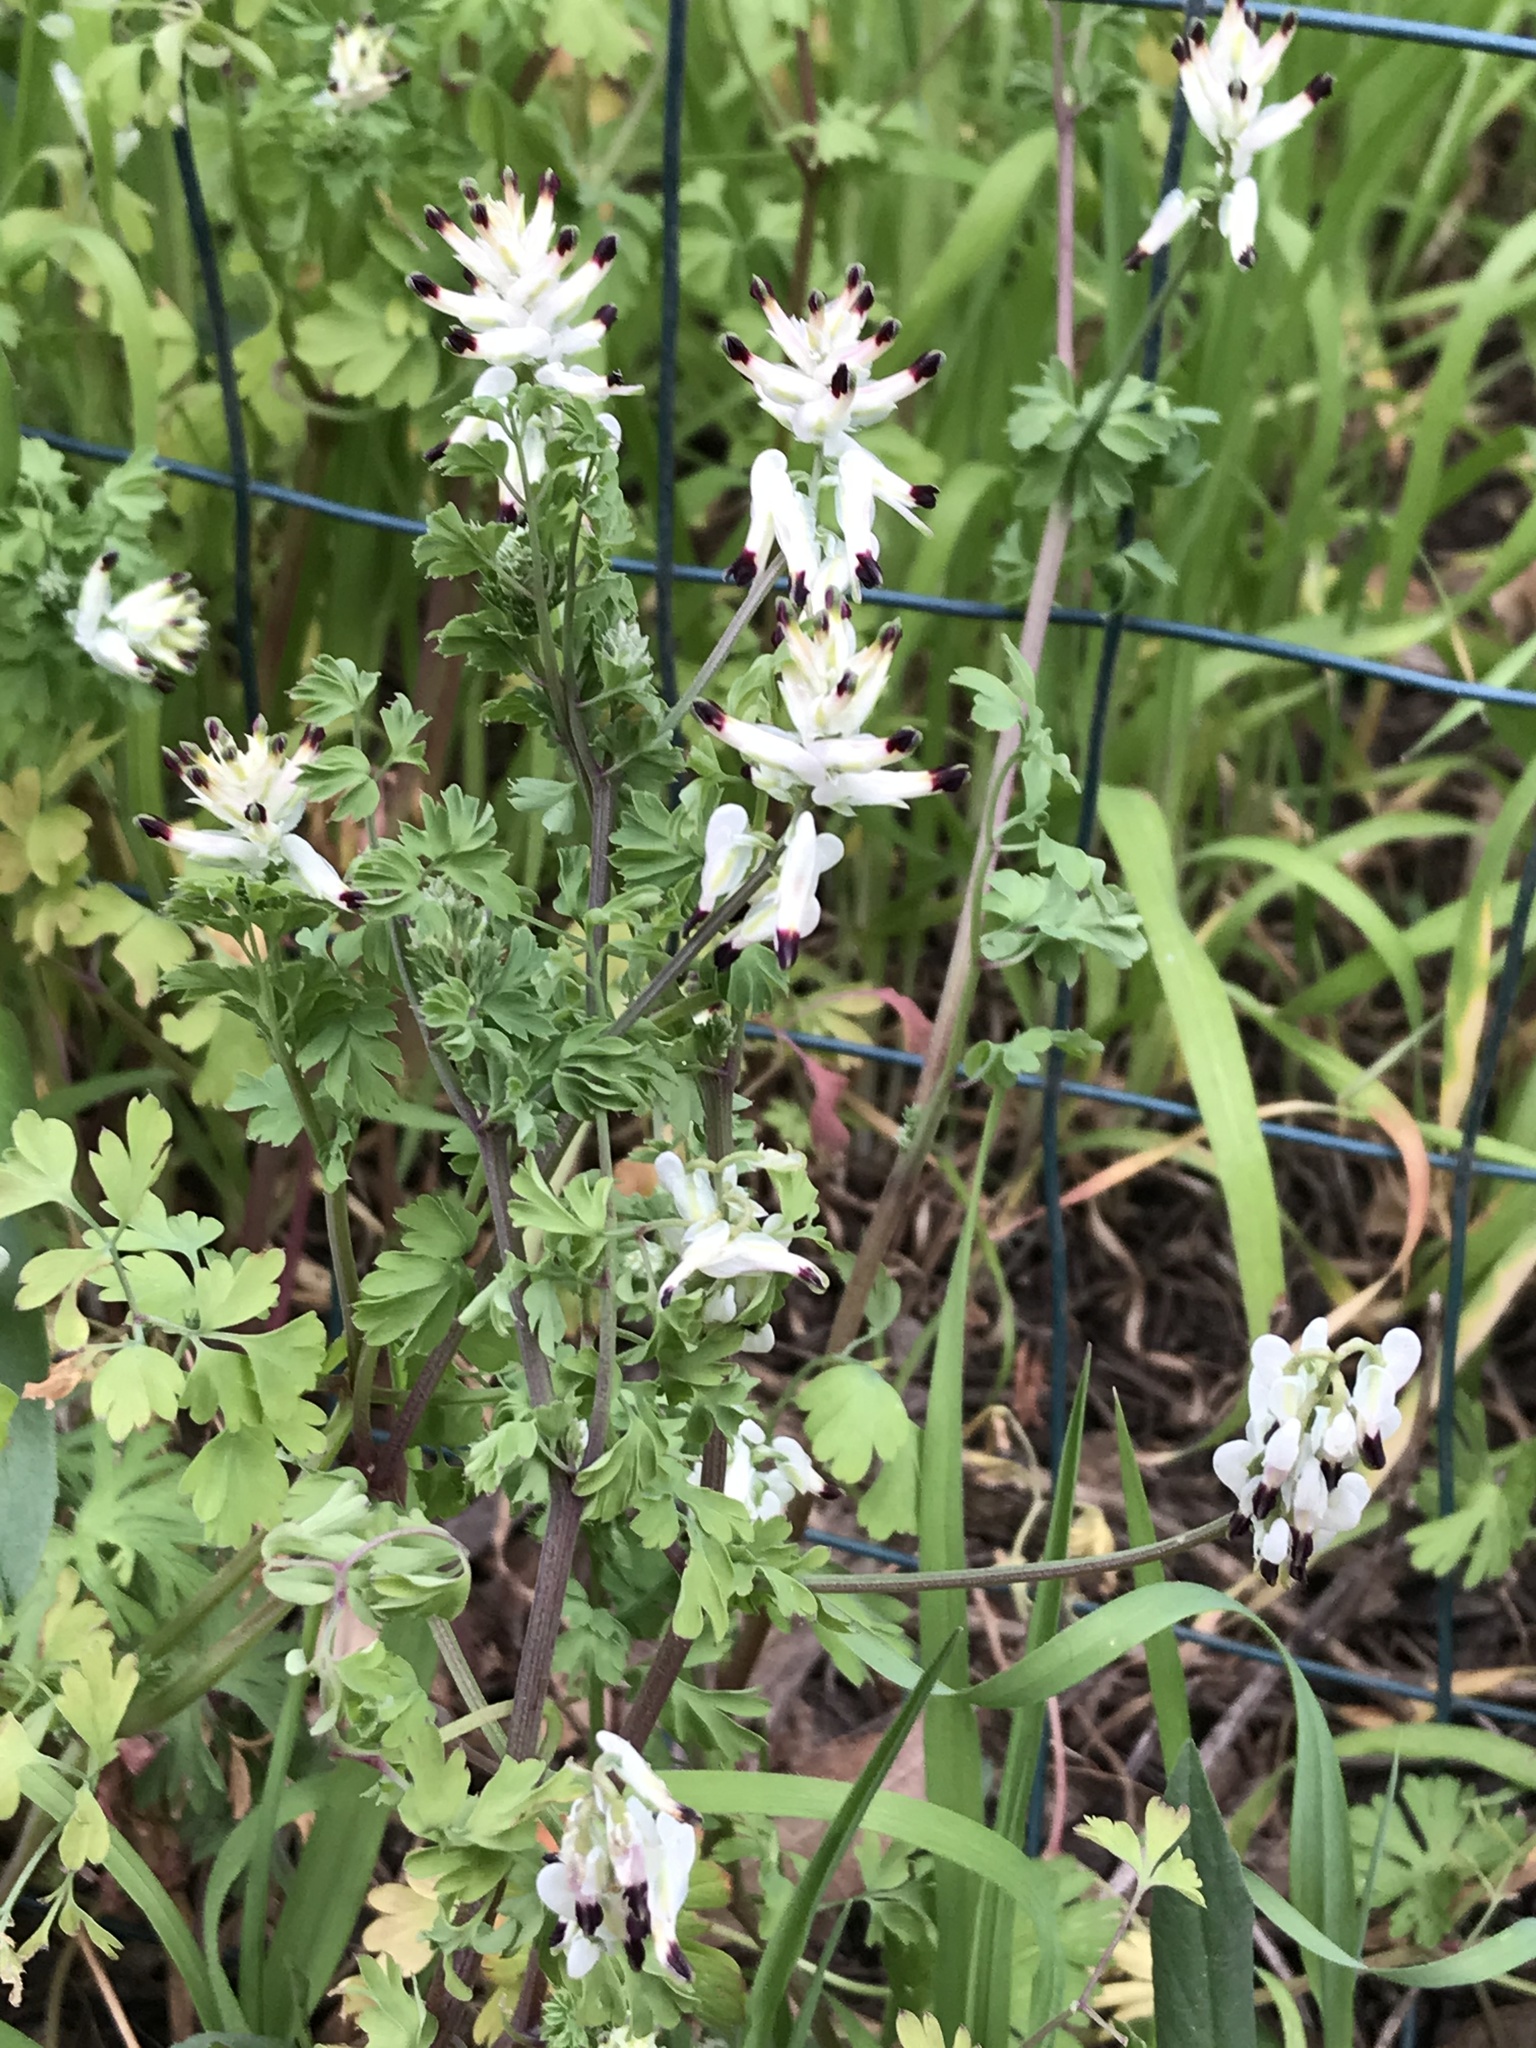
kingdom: Plantae
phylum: Tracheophyta
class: Magnoliopsida
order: Ranunculales
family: Papaveraceae
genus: Fumaria
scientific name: Fumaria capreolata
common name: White ramping-fumitory
